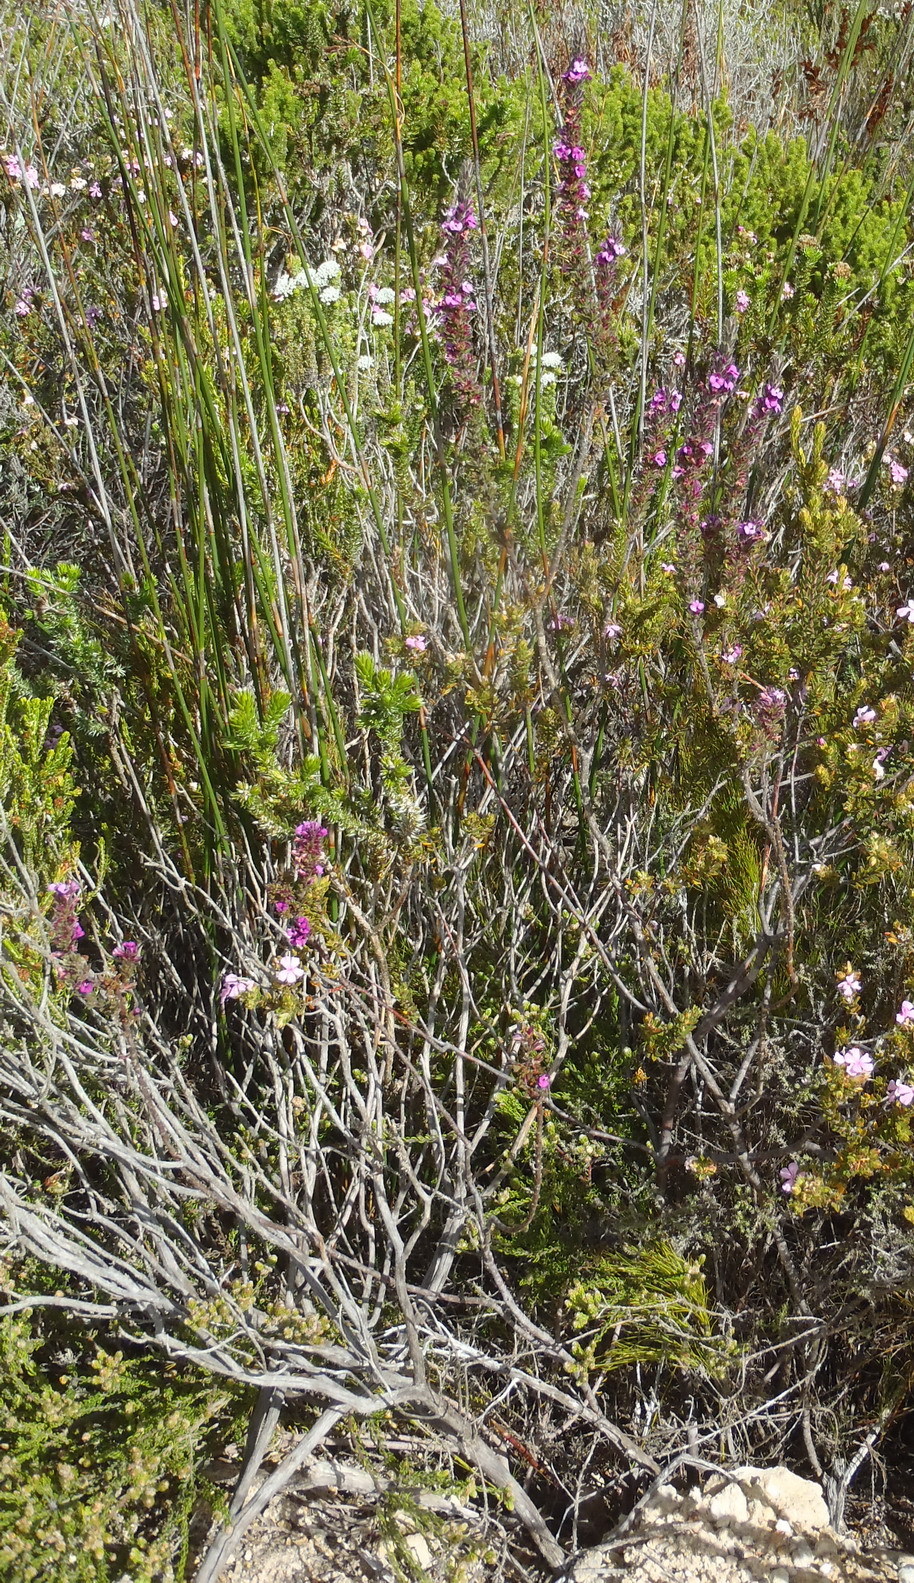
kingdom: Plantae
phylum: Tracheophyta
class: Magnoliopsida
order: Fabales
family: Polygalaceae
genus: Muraltia
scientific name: Muraltia squarrosa
